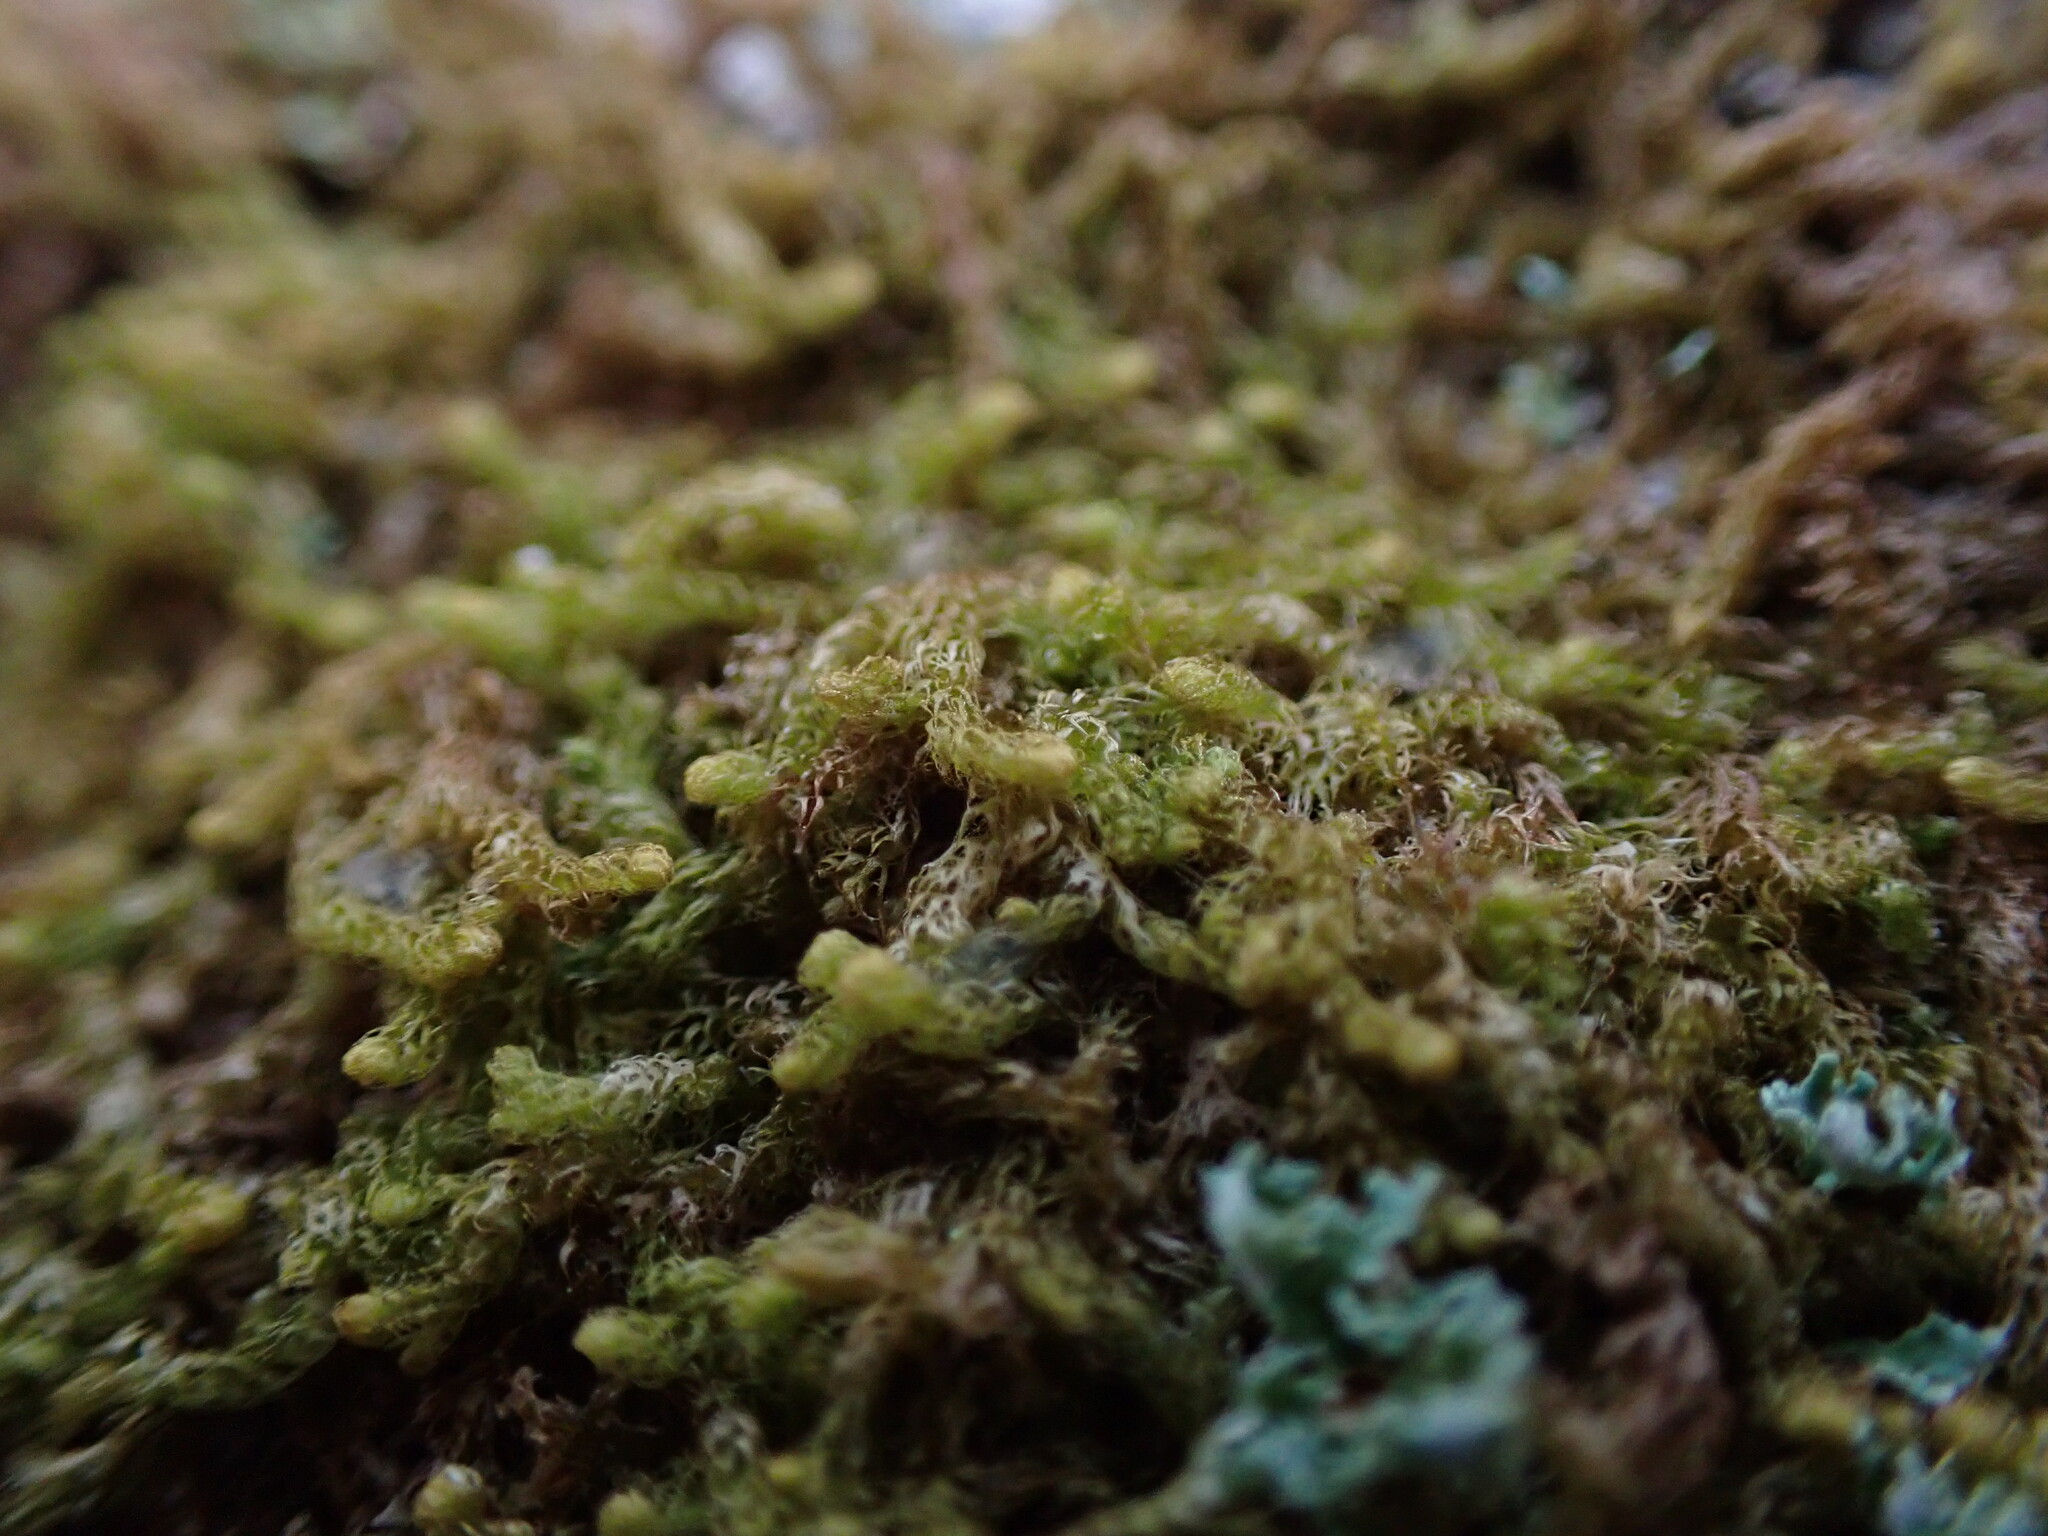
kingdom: Plantae
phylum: Marchantiophyta
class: Jungermanniopsida
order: Ptilidiales
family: Ptilidiaceae
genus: Ptilidium
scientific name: Ptilidium californicum
